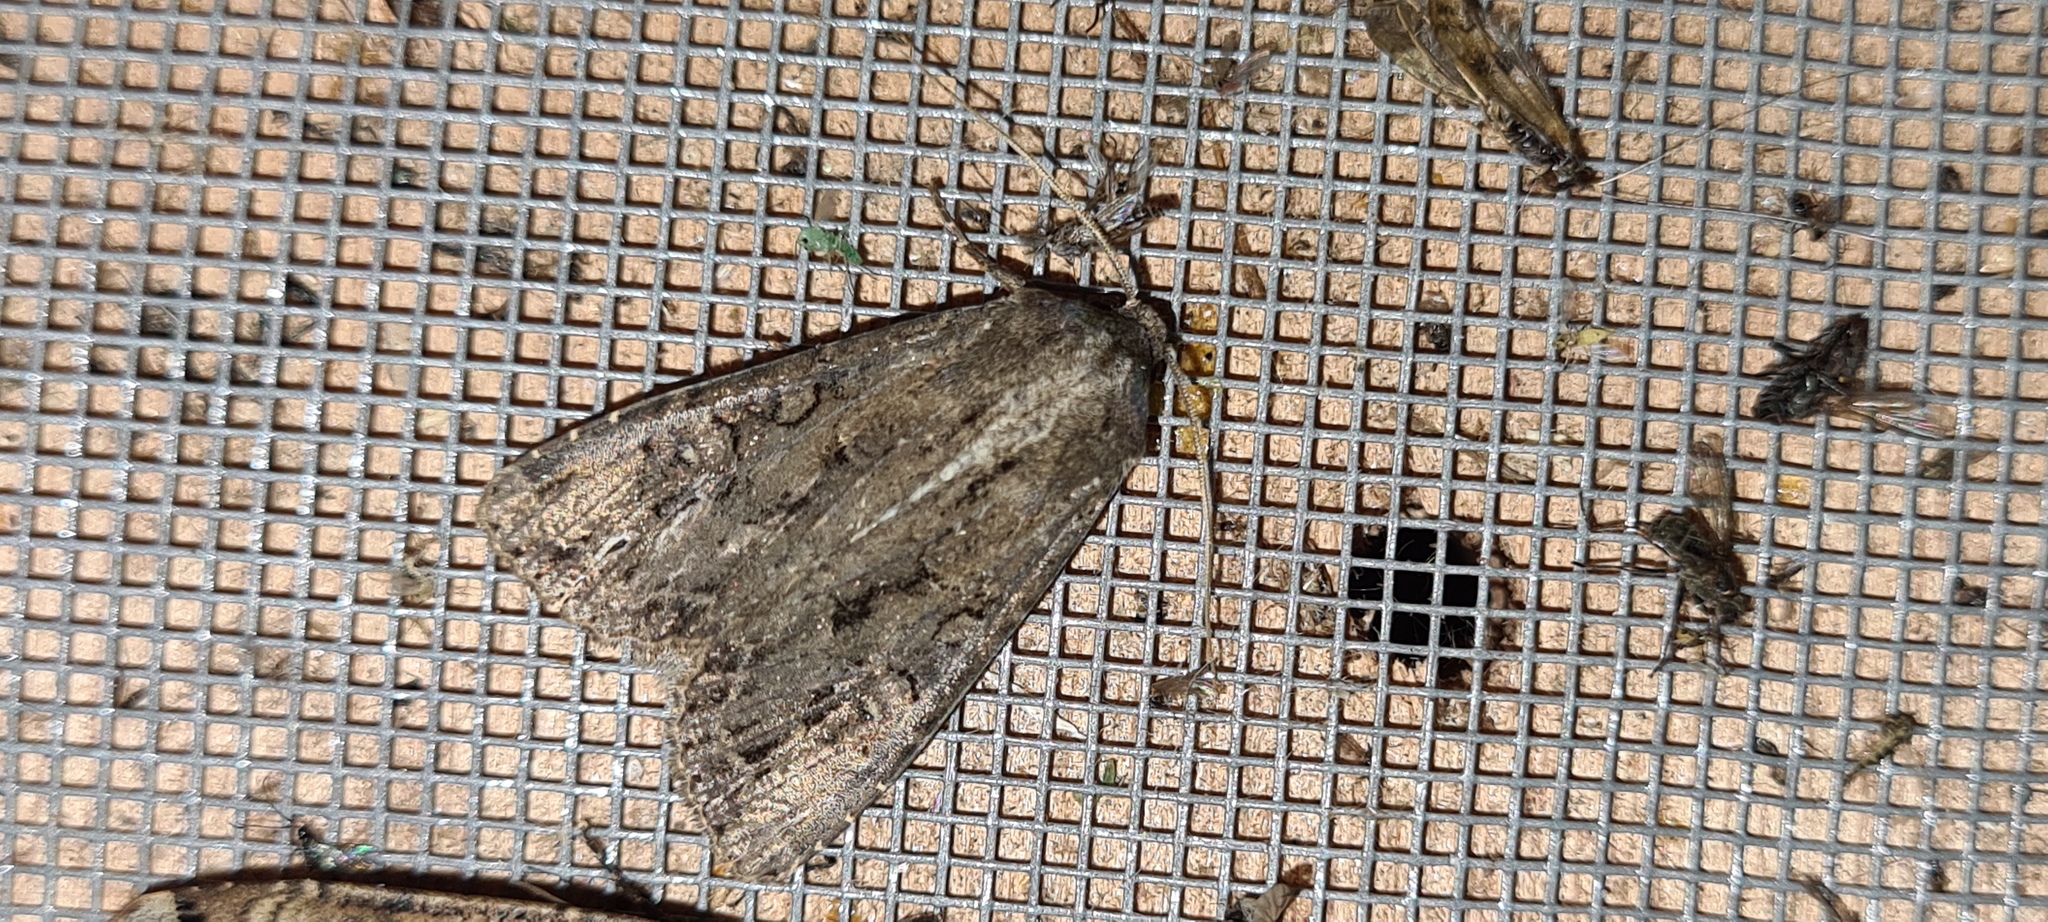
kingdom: Animalia
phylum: Arthropoda
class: Insecta
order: Lepidoptera
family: Noctuidae
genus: Apterogenum
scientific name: Apterogenum ypsillon
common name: Dingy shears
